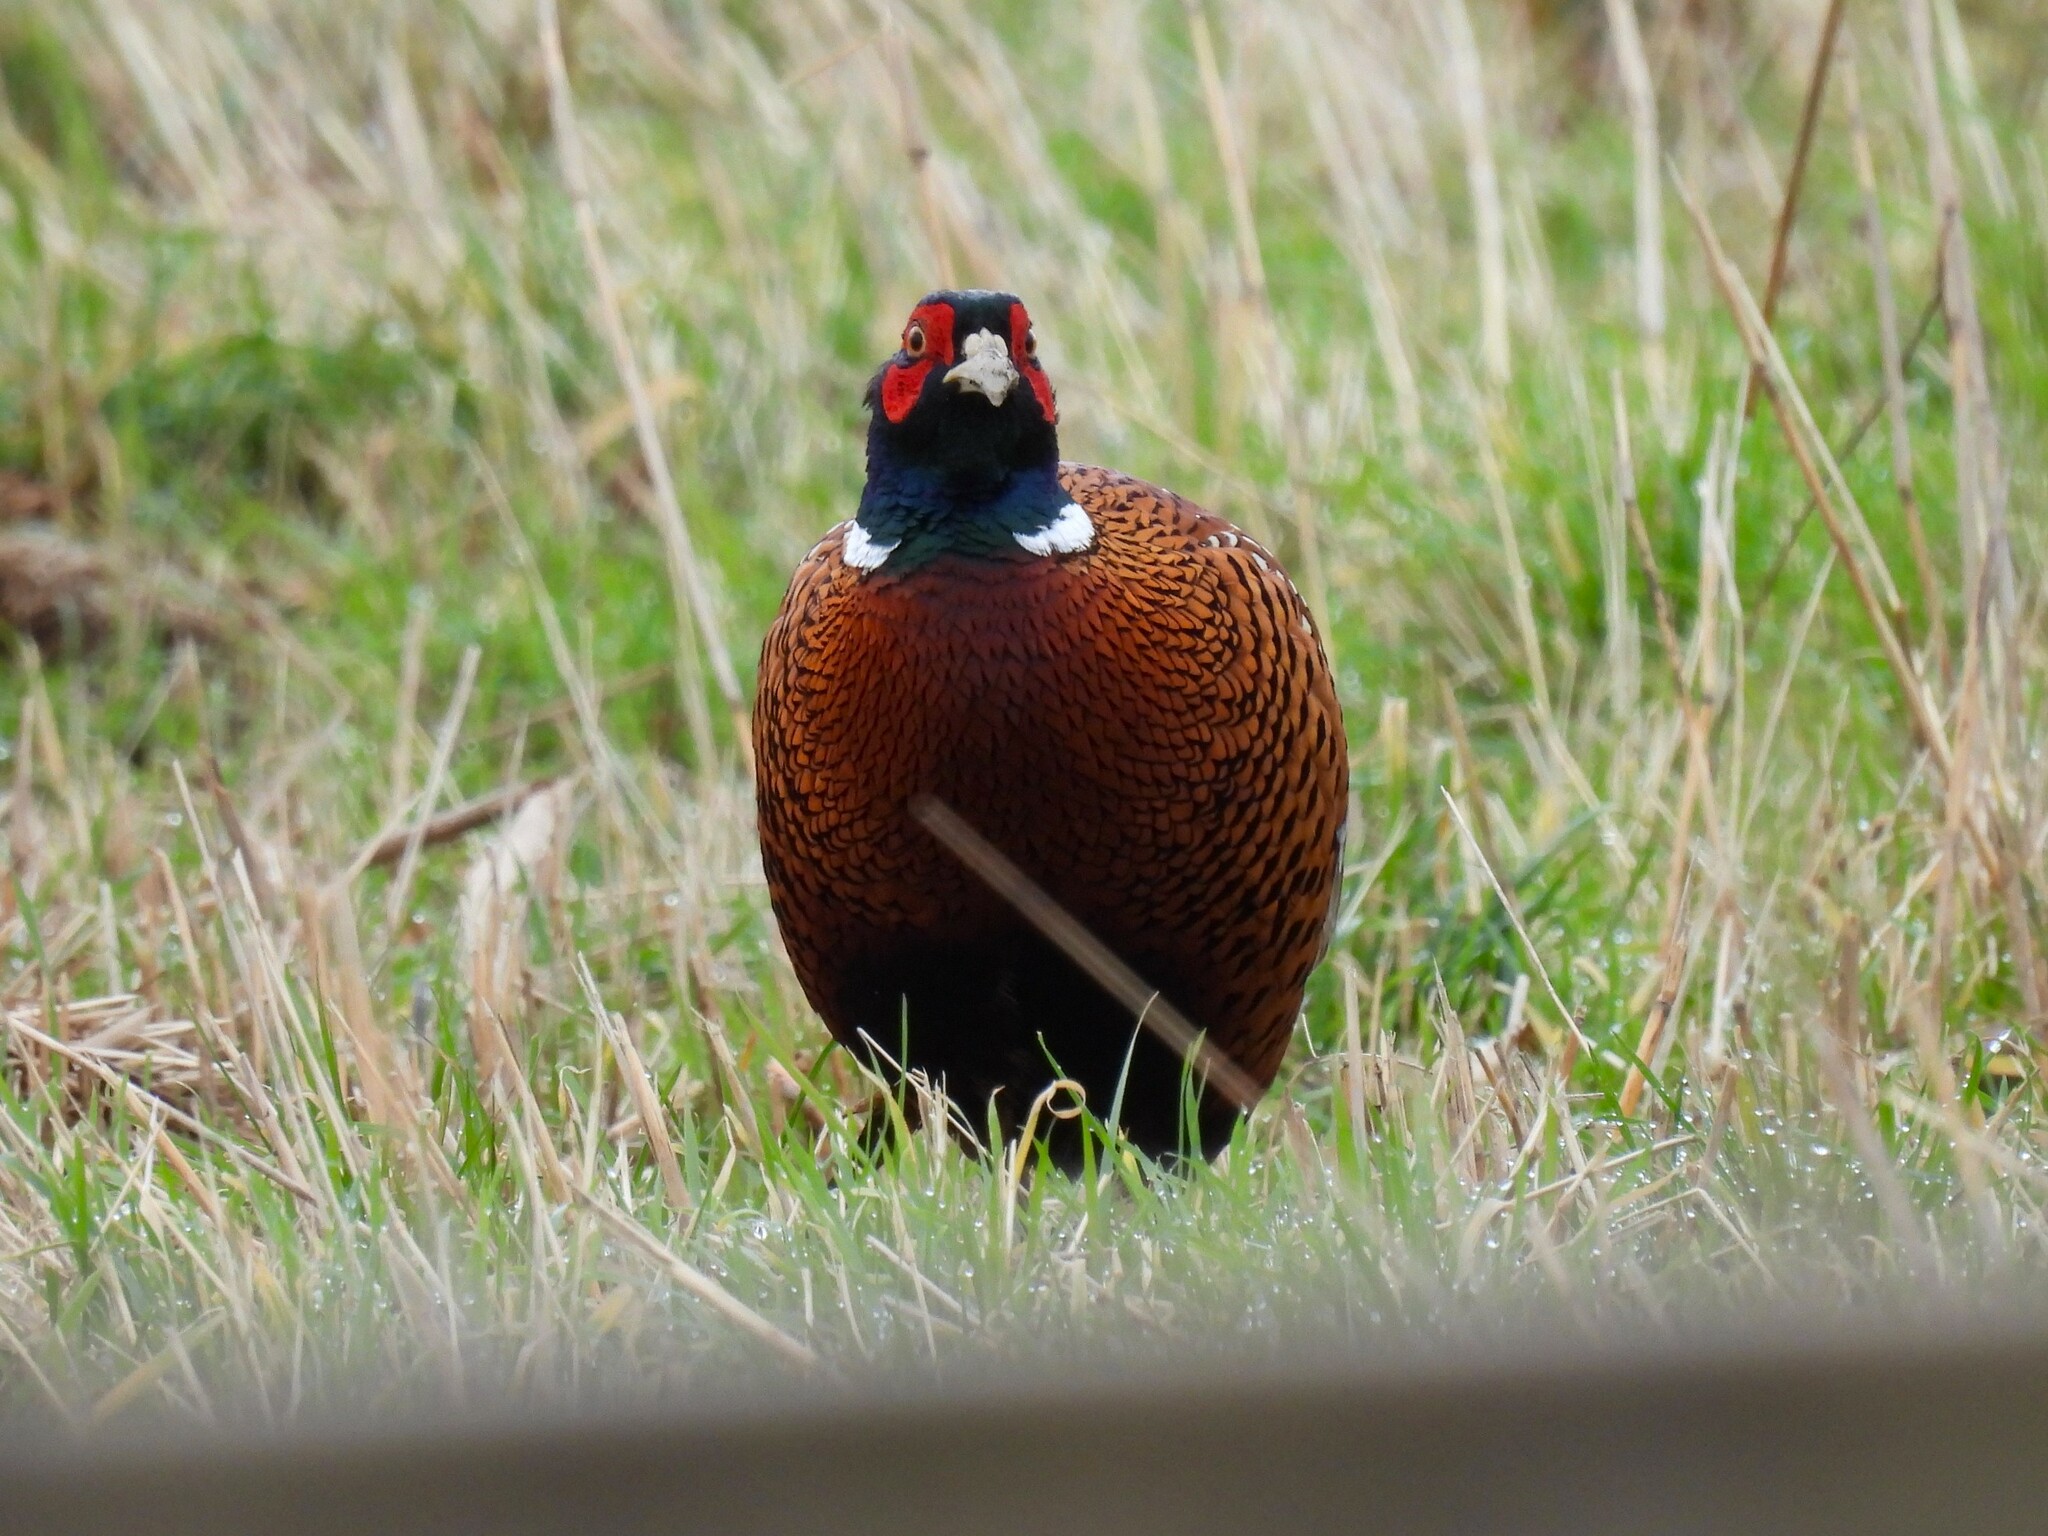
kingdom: Animalia
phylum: Chordata
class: Aves
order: Galliformes
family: Phasianidae
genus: Phasianus
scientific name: Phasianus colchicus
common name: Common pheasant
